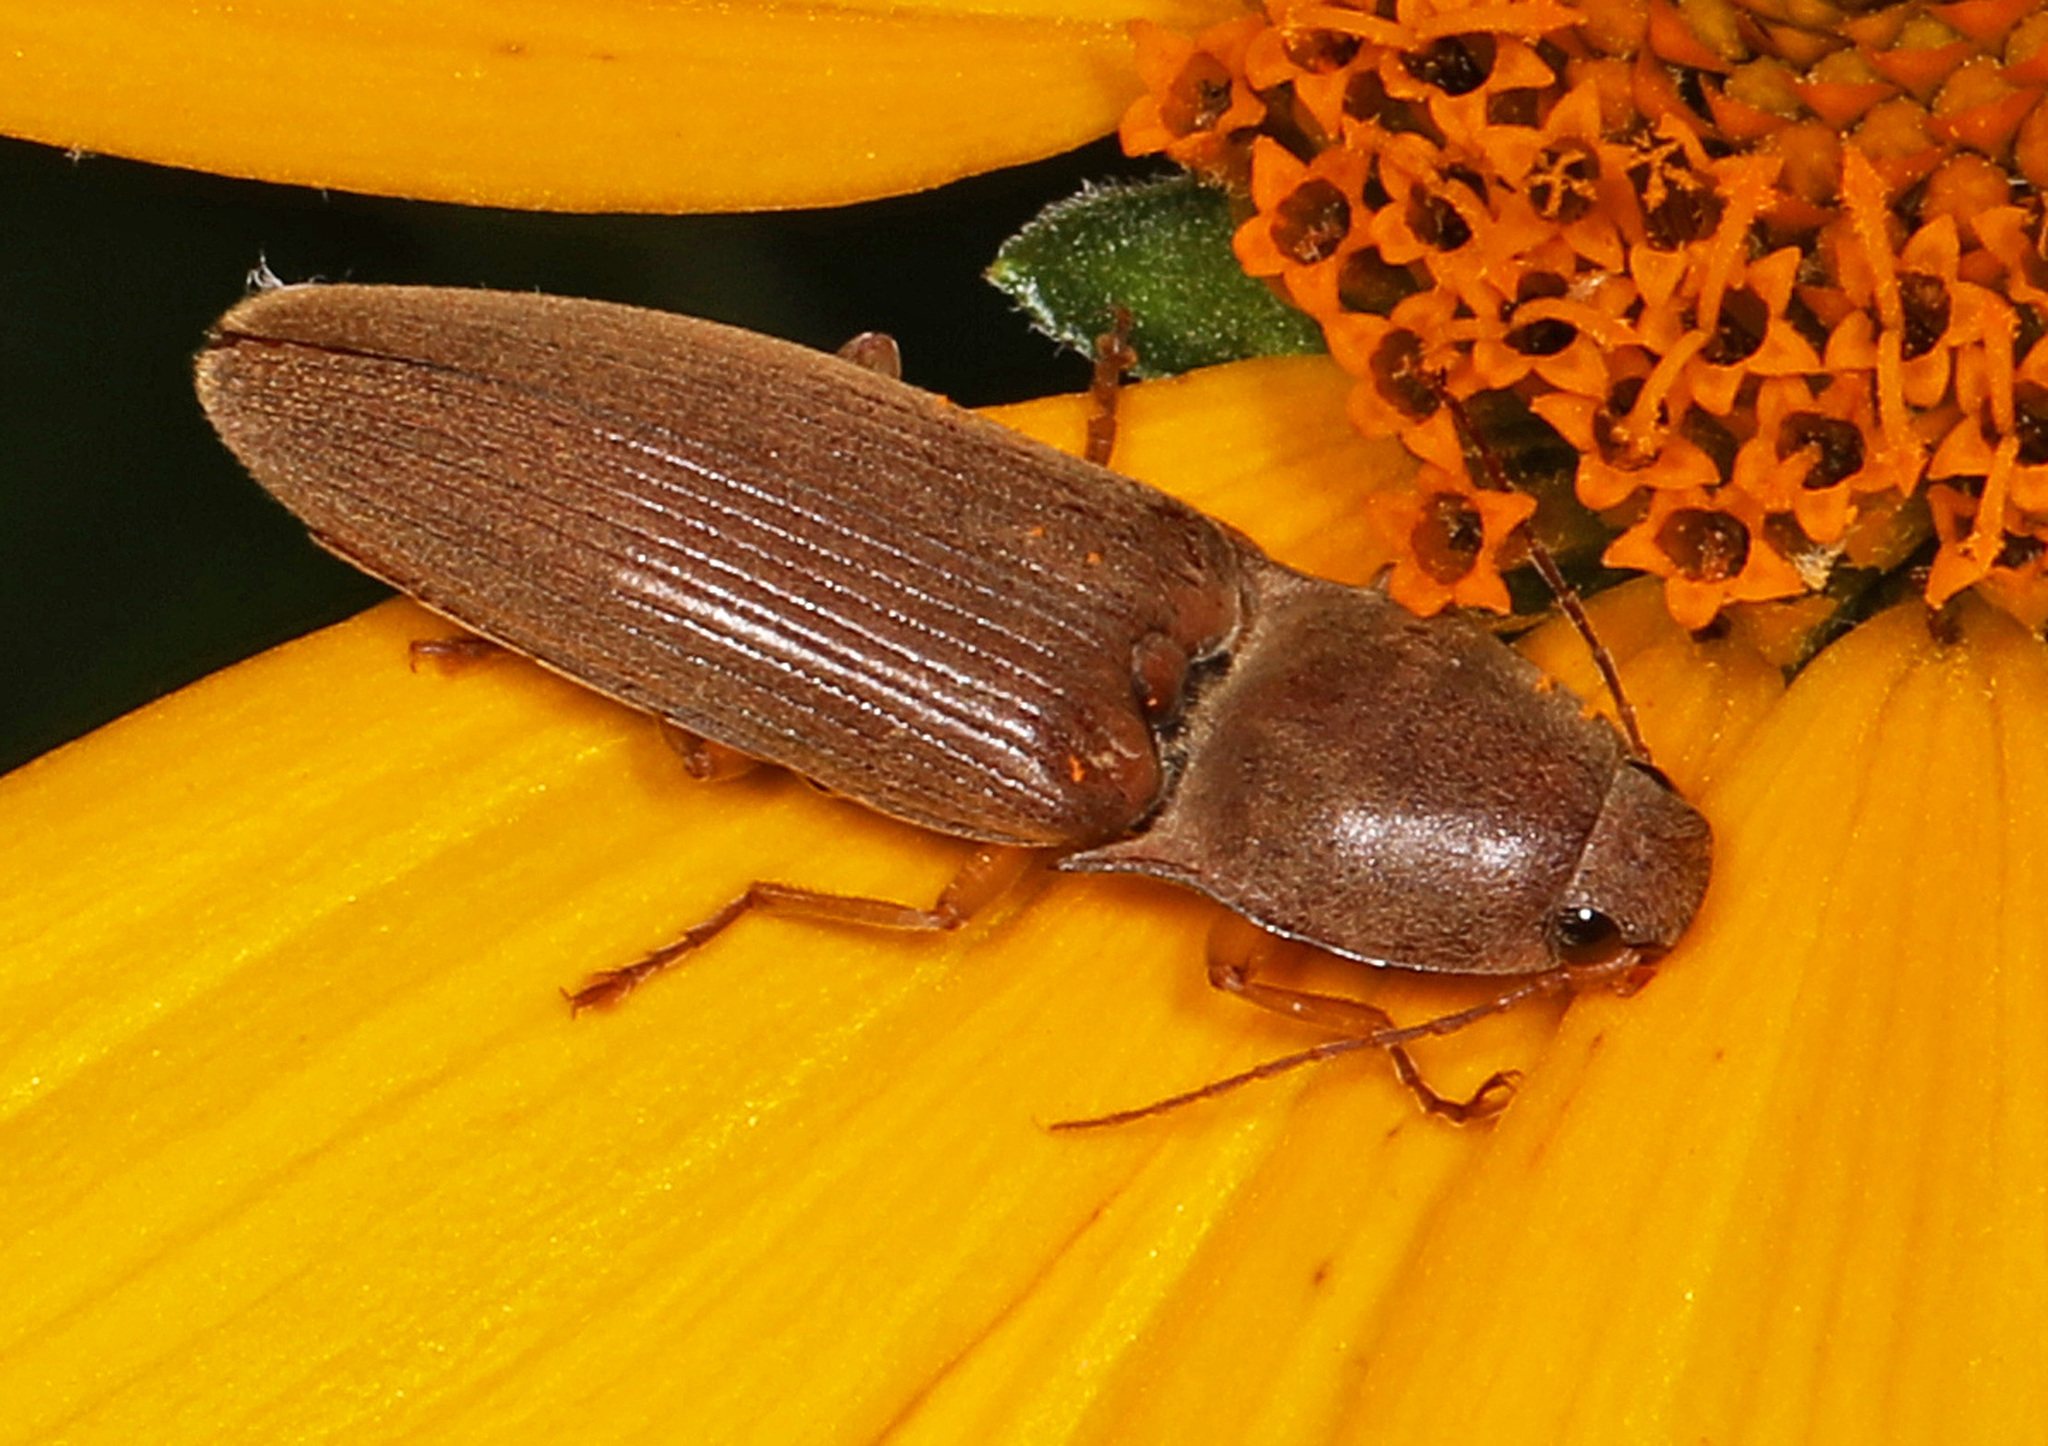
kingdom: Animalia
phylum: Arthropoda
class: Insecta
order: Coleoptera
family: Elateridae
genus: Monocrepidius
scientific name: Monocrepidius lividus
